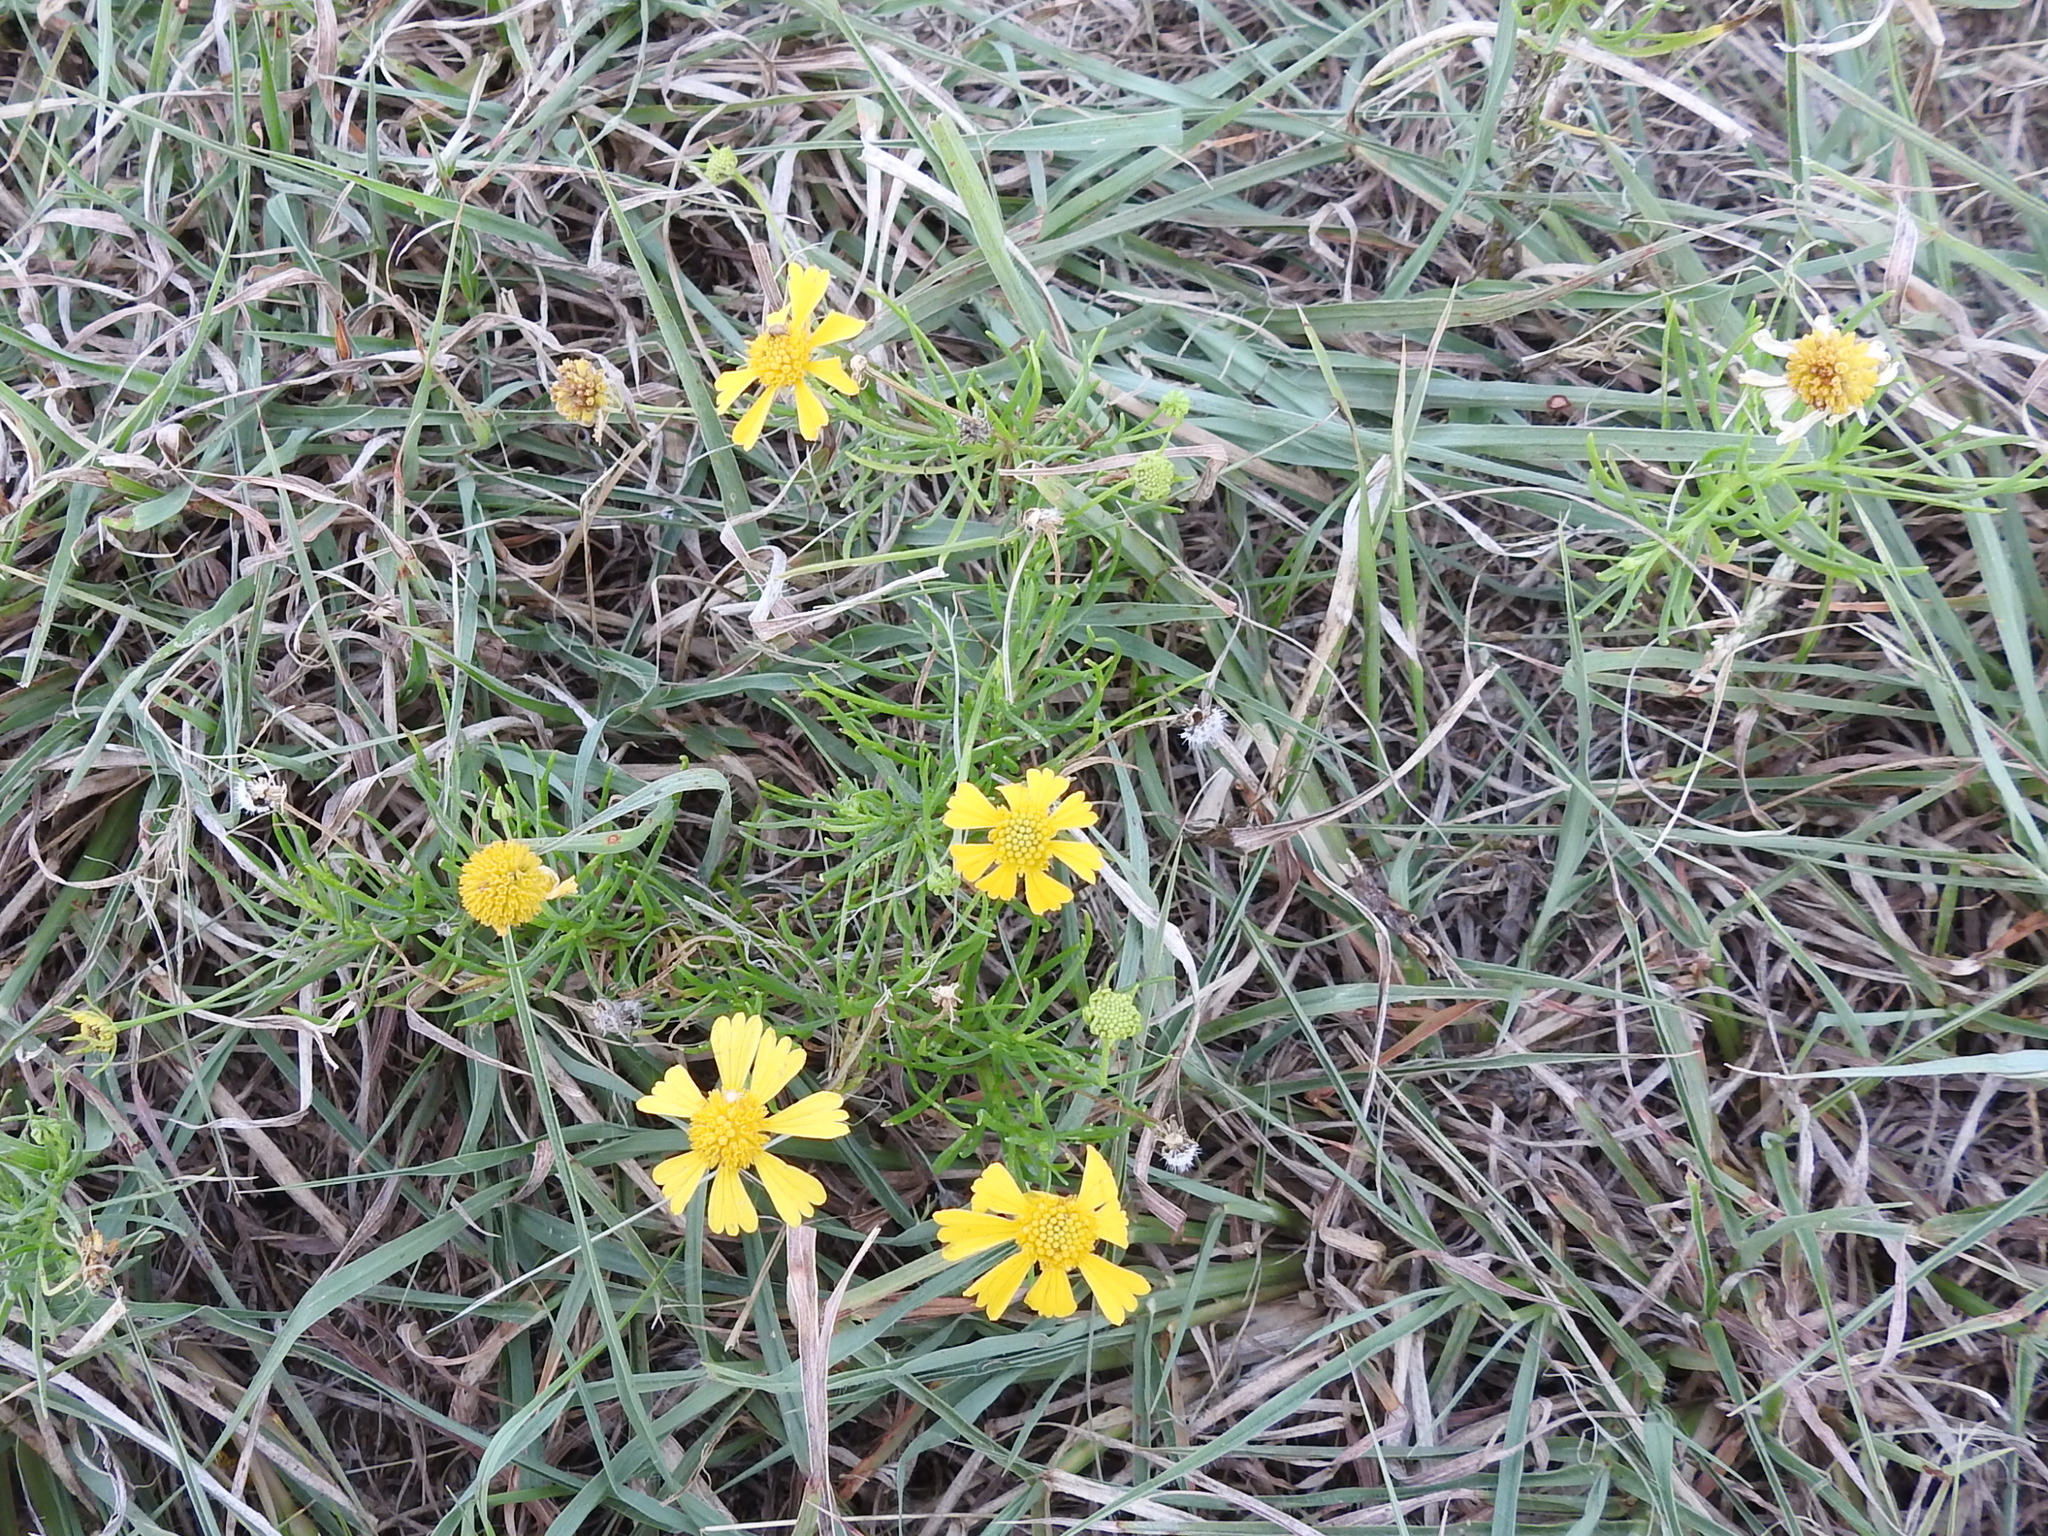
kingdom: Plantae
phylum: Tracheophyta
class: Magnoliopsida
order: Asterales
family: Asteraceae
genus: Helenium
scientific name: Helenium amarum
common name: Bitter sneezeweed
